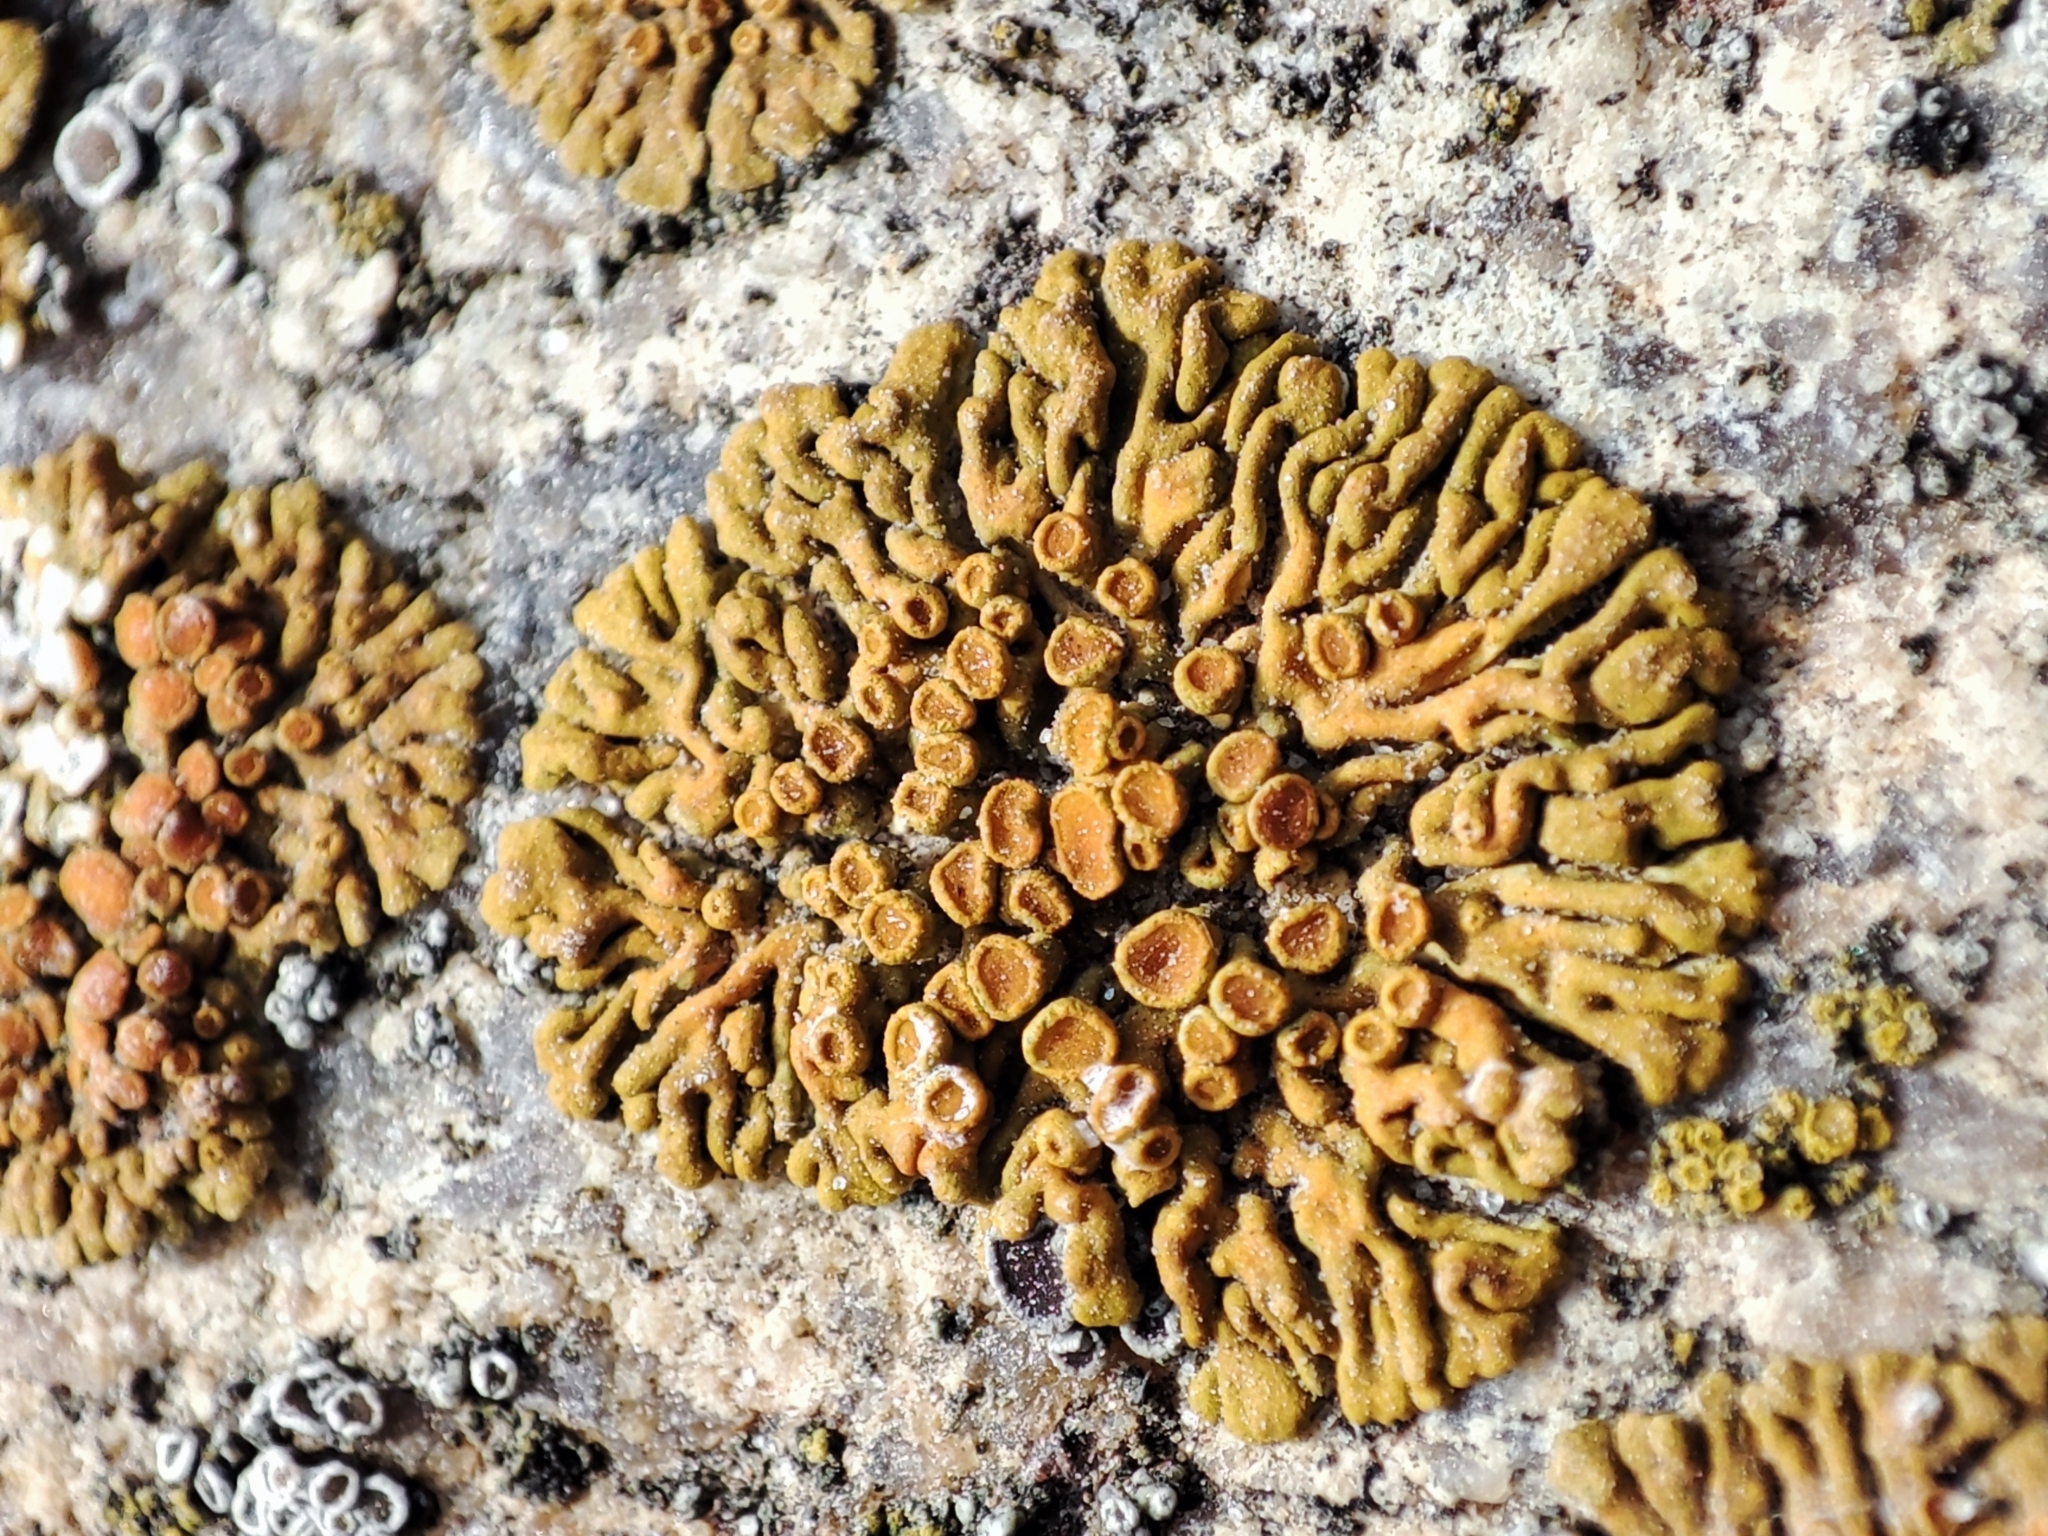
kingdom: Fungi
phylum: Ascomycota
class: Lecanoromycetes
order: Teloschistales
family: Teloschistaceae
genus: Calogaya
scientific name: Calogaya saxicola
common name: Rock jewel lichen
